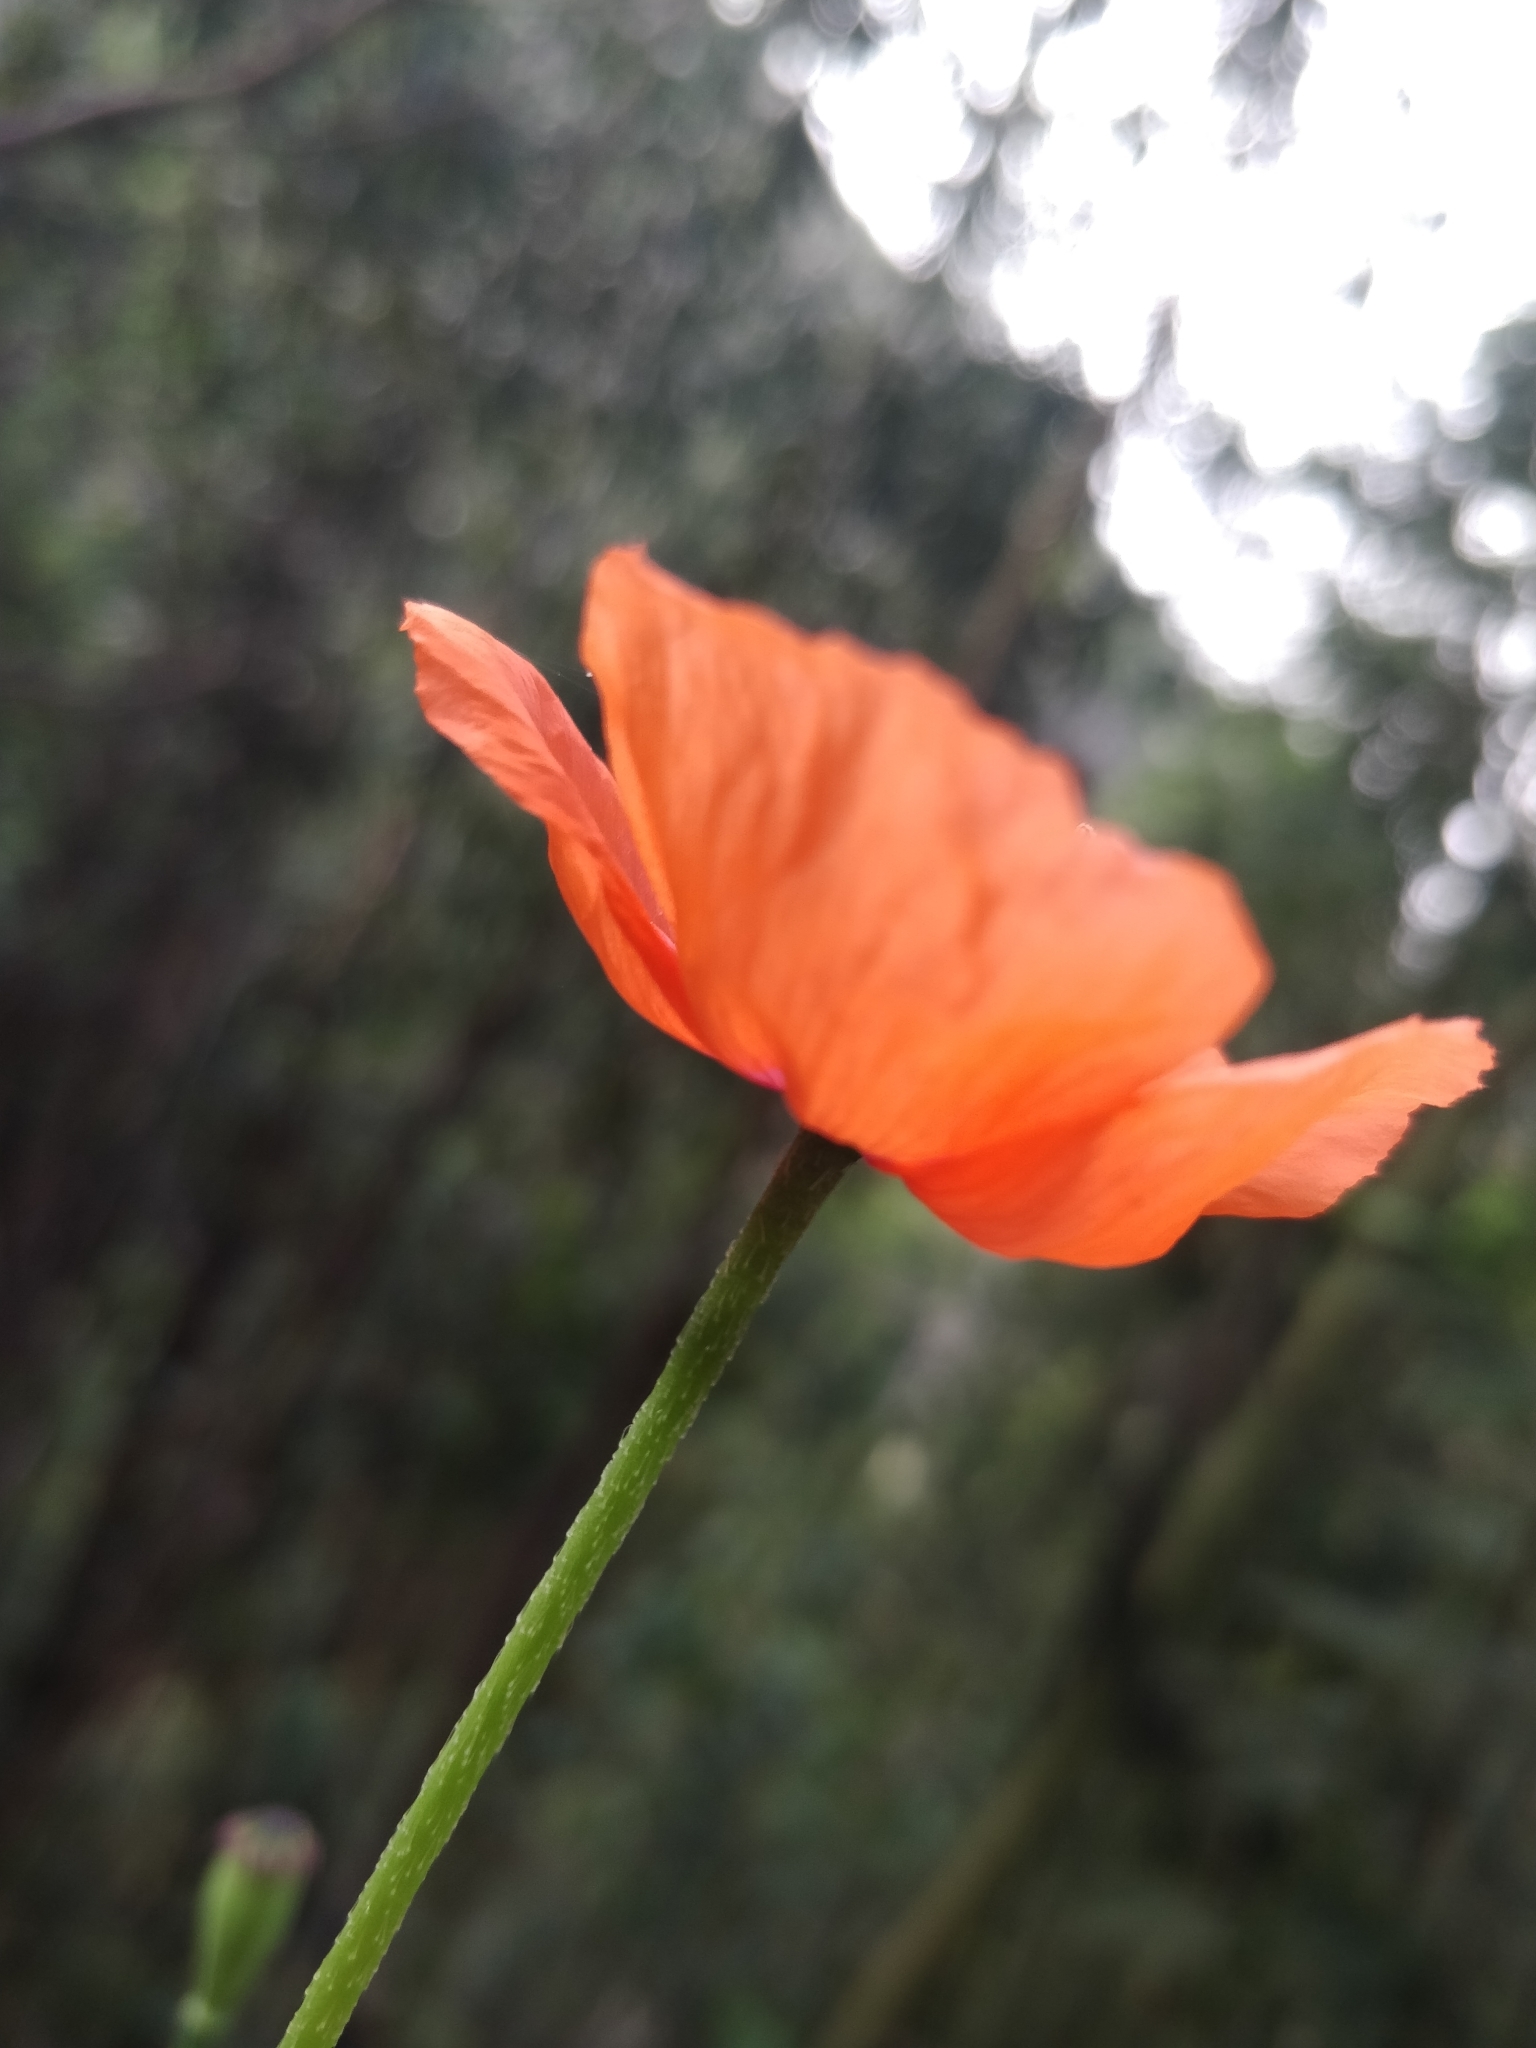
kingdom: Plantae
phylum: Tracheophyta
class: Magnoliopsida
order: Ranunculales
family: Papaveraceae
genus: Papaver
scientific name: Papaver pinnatifidum
